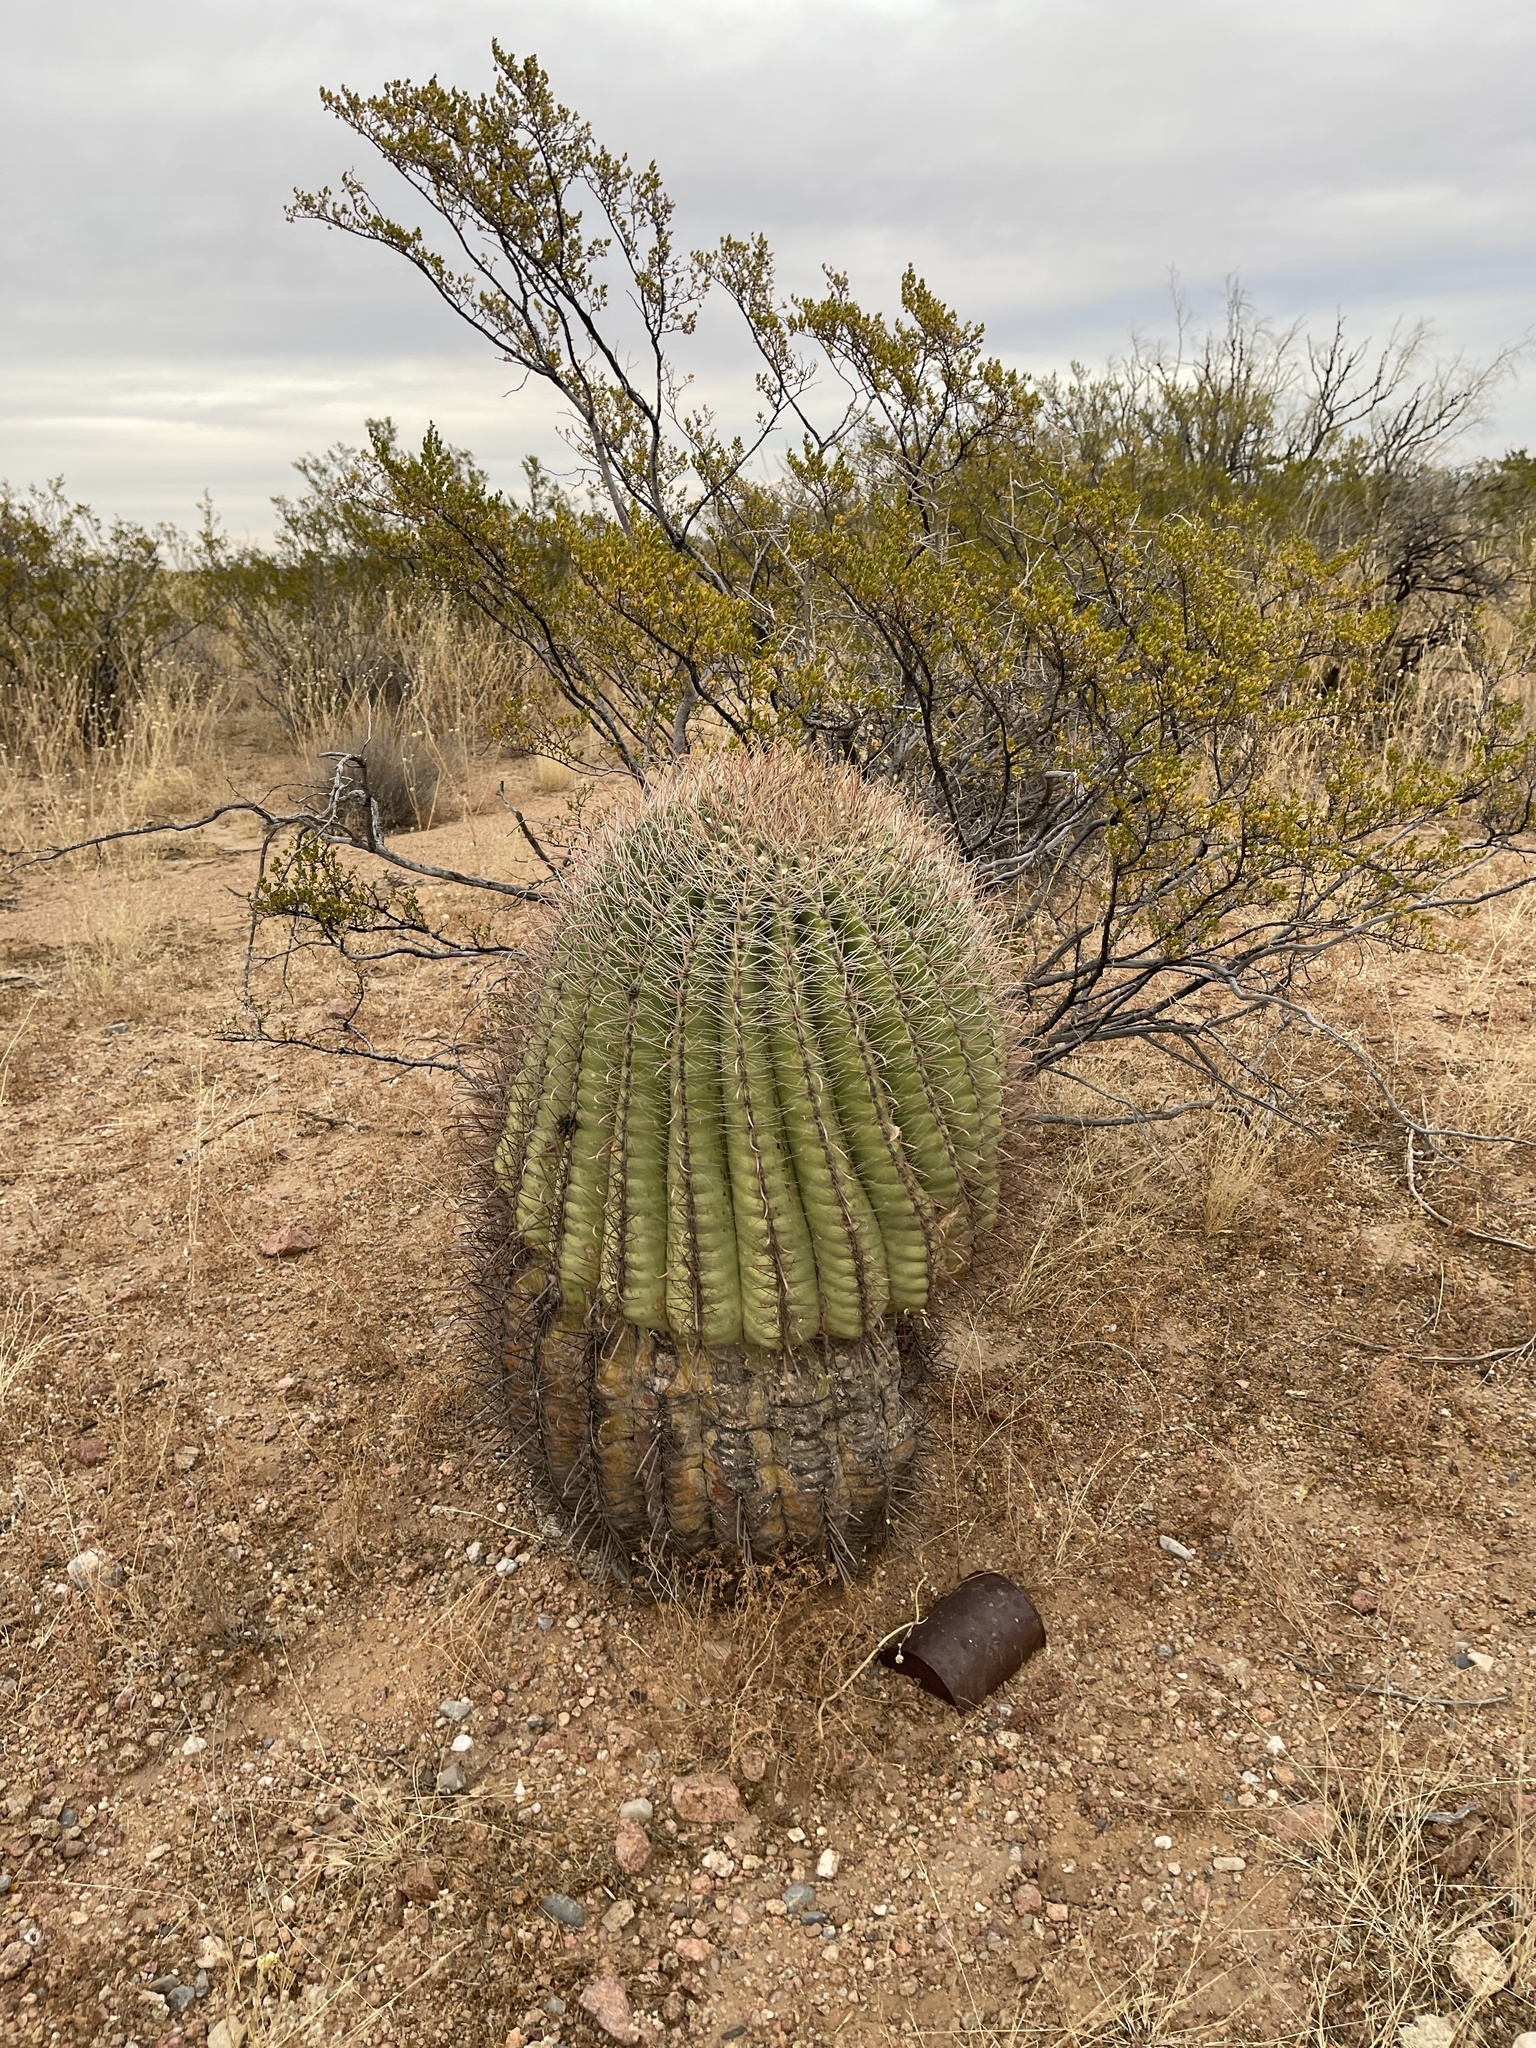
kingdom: Plantae
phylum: Tracheophyta
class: Magnoliopsida
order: Caryophyllales
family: Cactaceae
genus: Ferocactus
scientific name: Ferocactus wislizeni
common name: Candy barrel cactus
